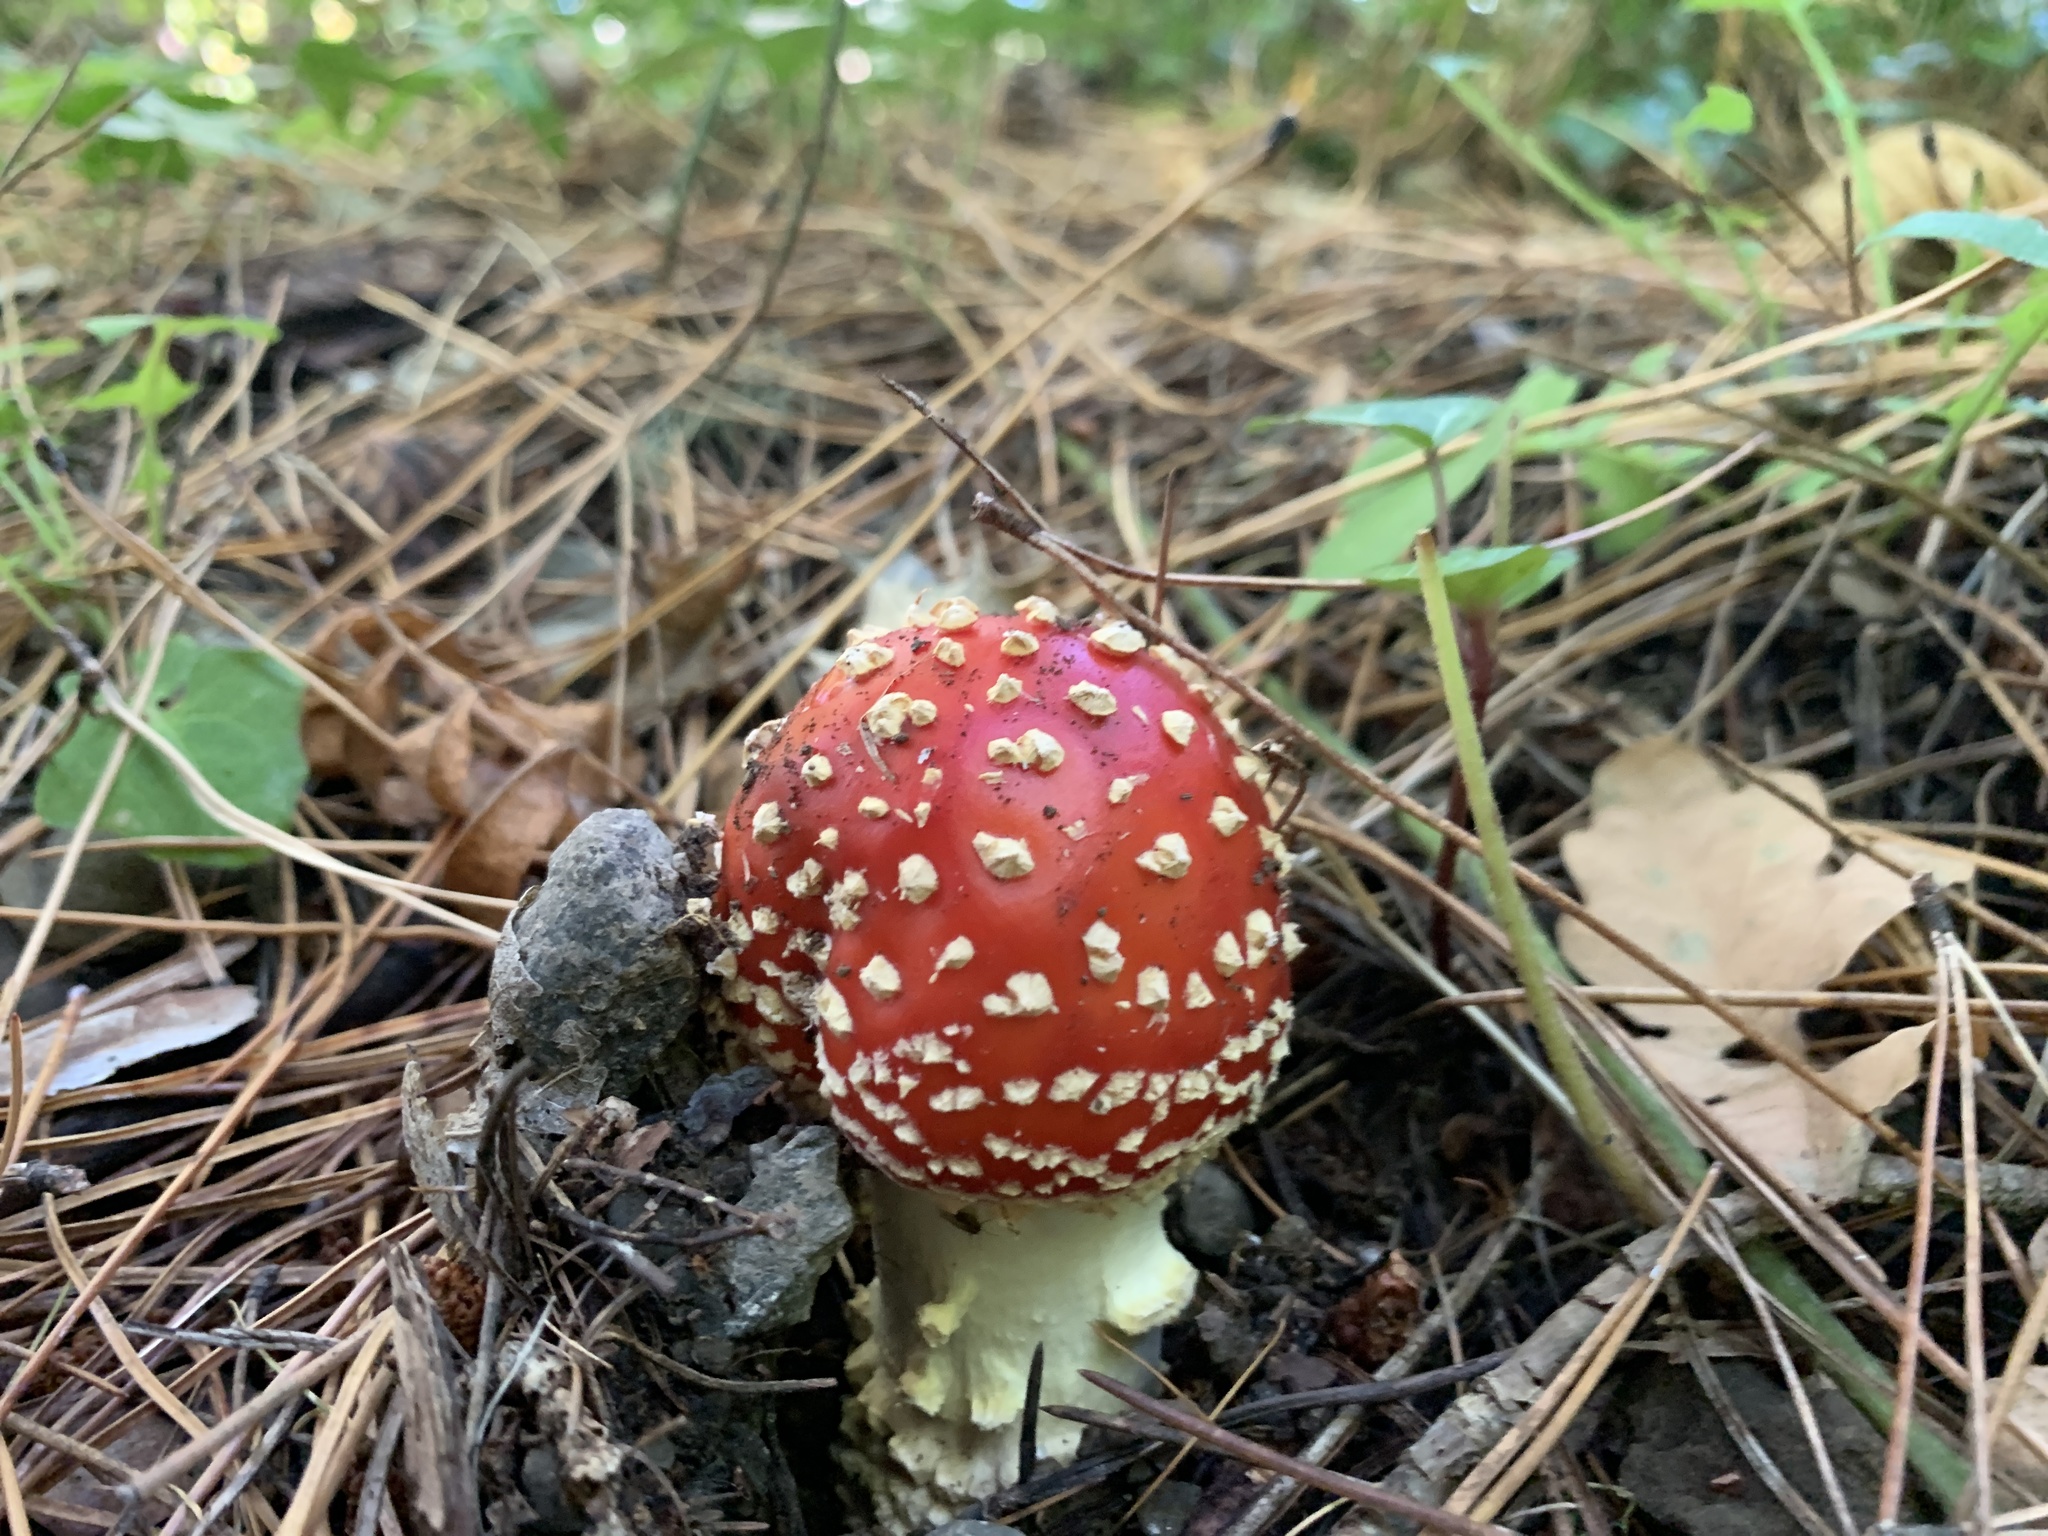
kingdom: Fungi
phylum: Basidiomycota
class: Agaricomycetes
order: Agaricales
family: Amanitaceae
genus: Amanita
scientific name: Amanita muscaria
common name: Fly agaric
